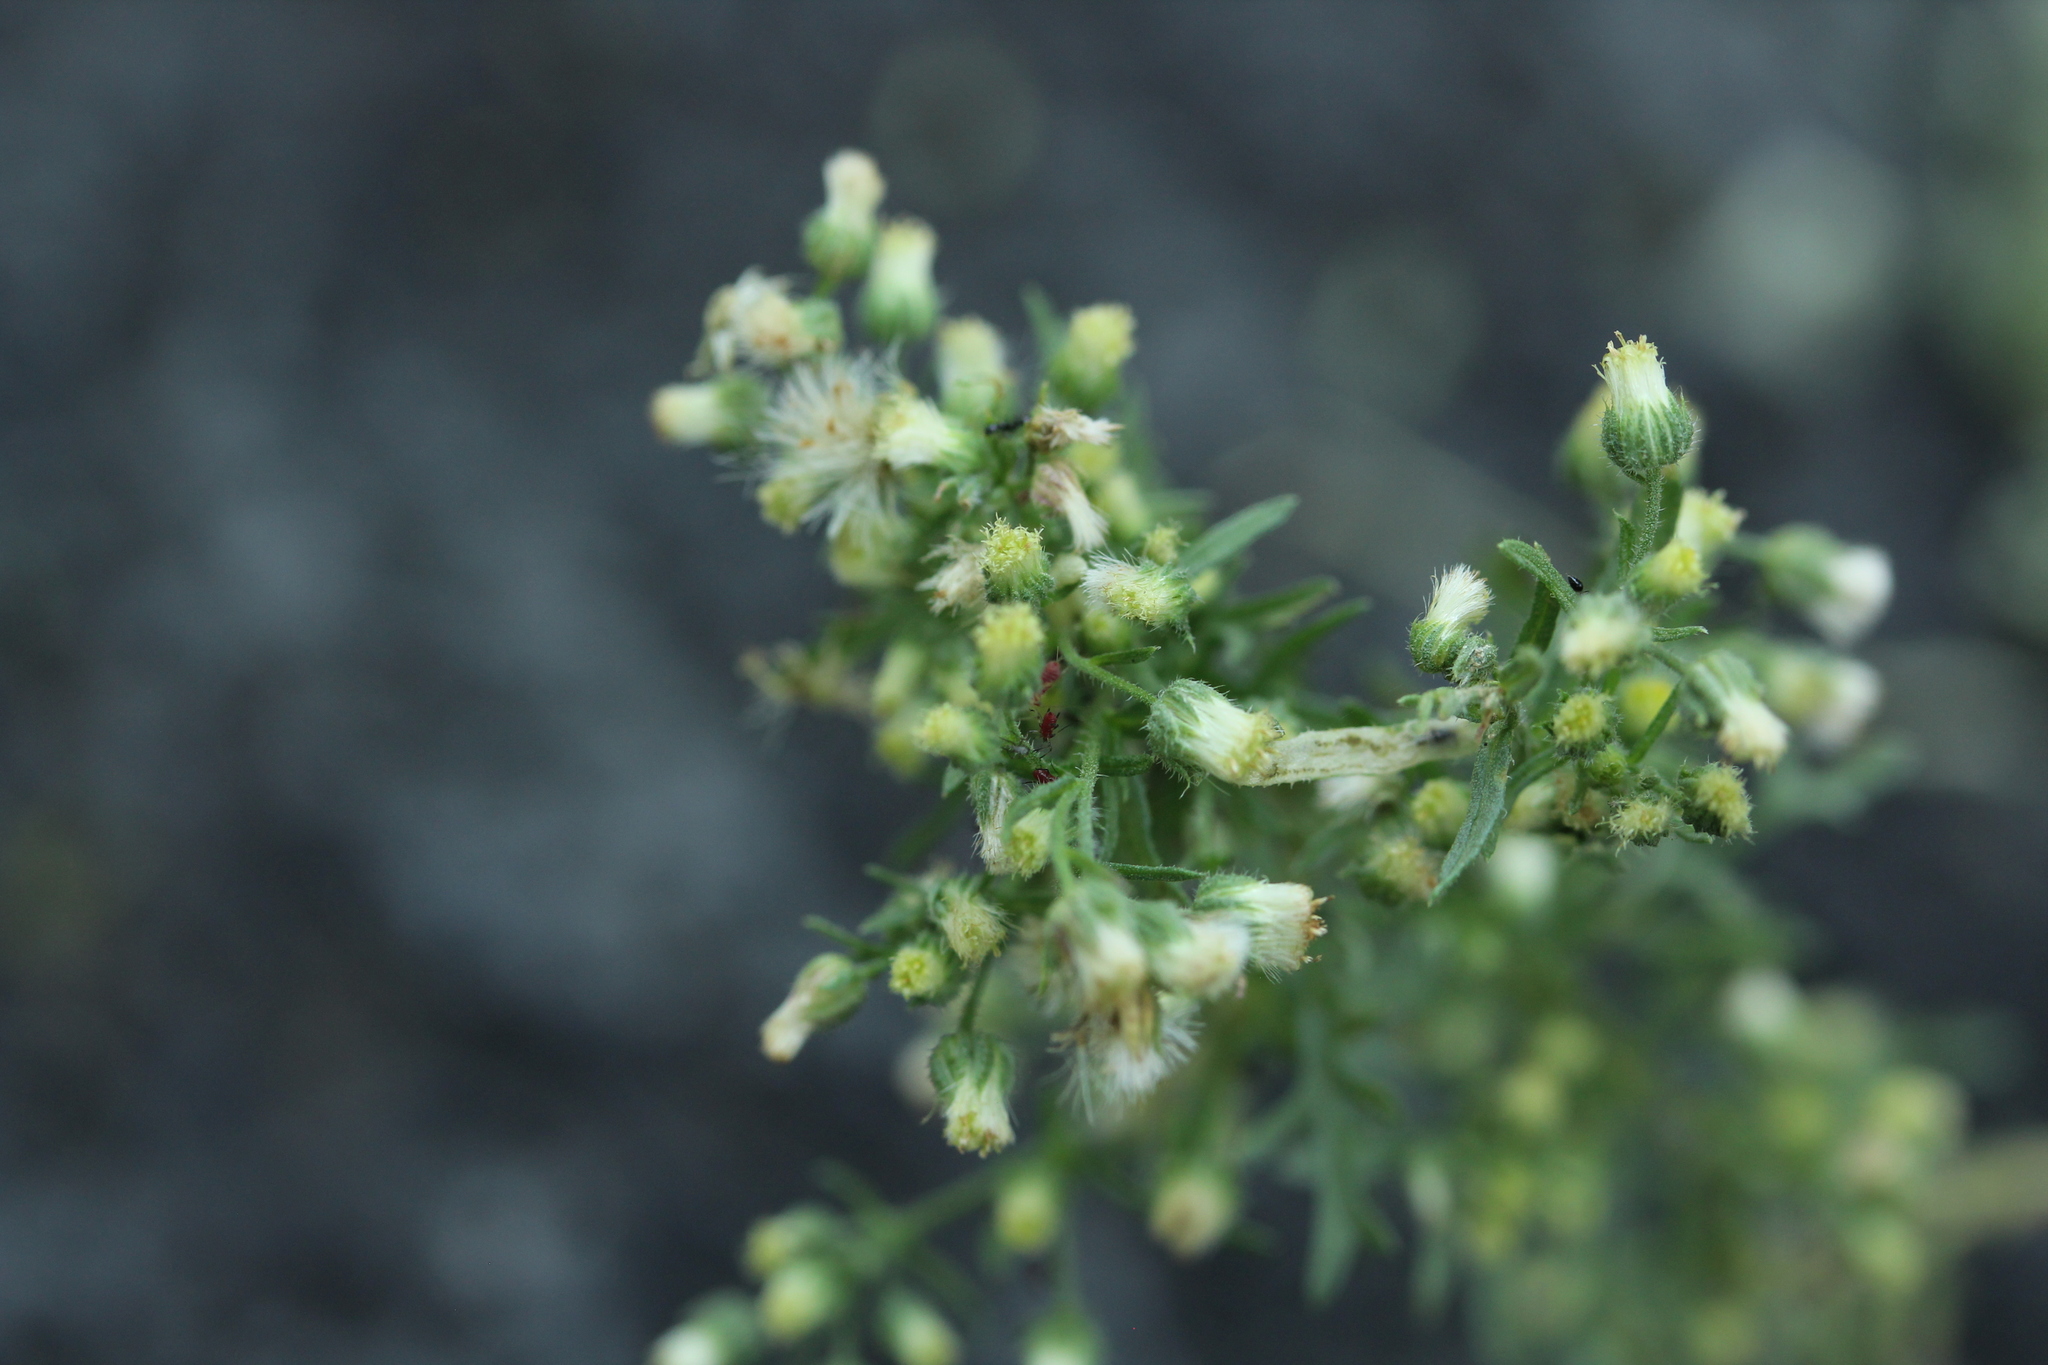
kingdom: Plantae
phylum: Tracheophyta
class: Magnoliopsida
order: Asterales
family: Asteraceae
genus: Laennecia
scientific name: Laennecia sophiifolia
